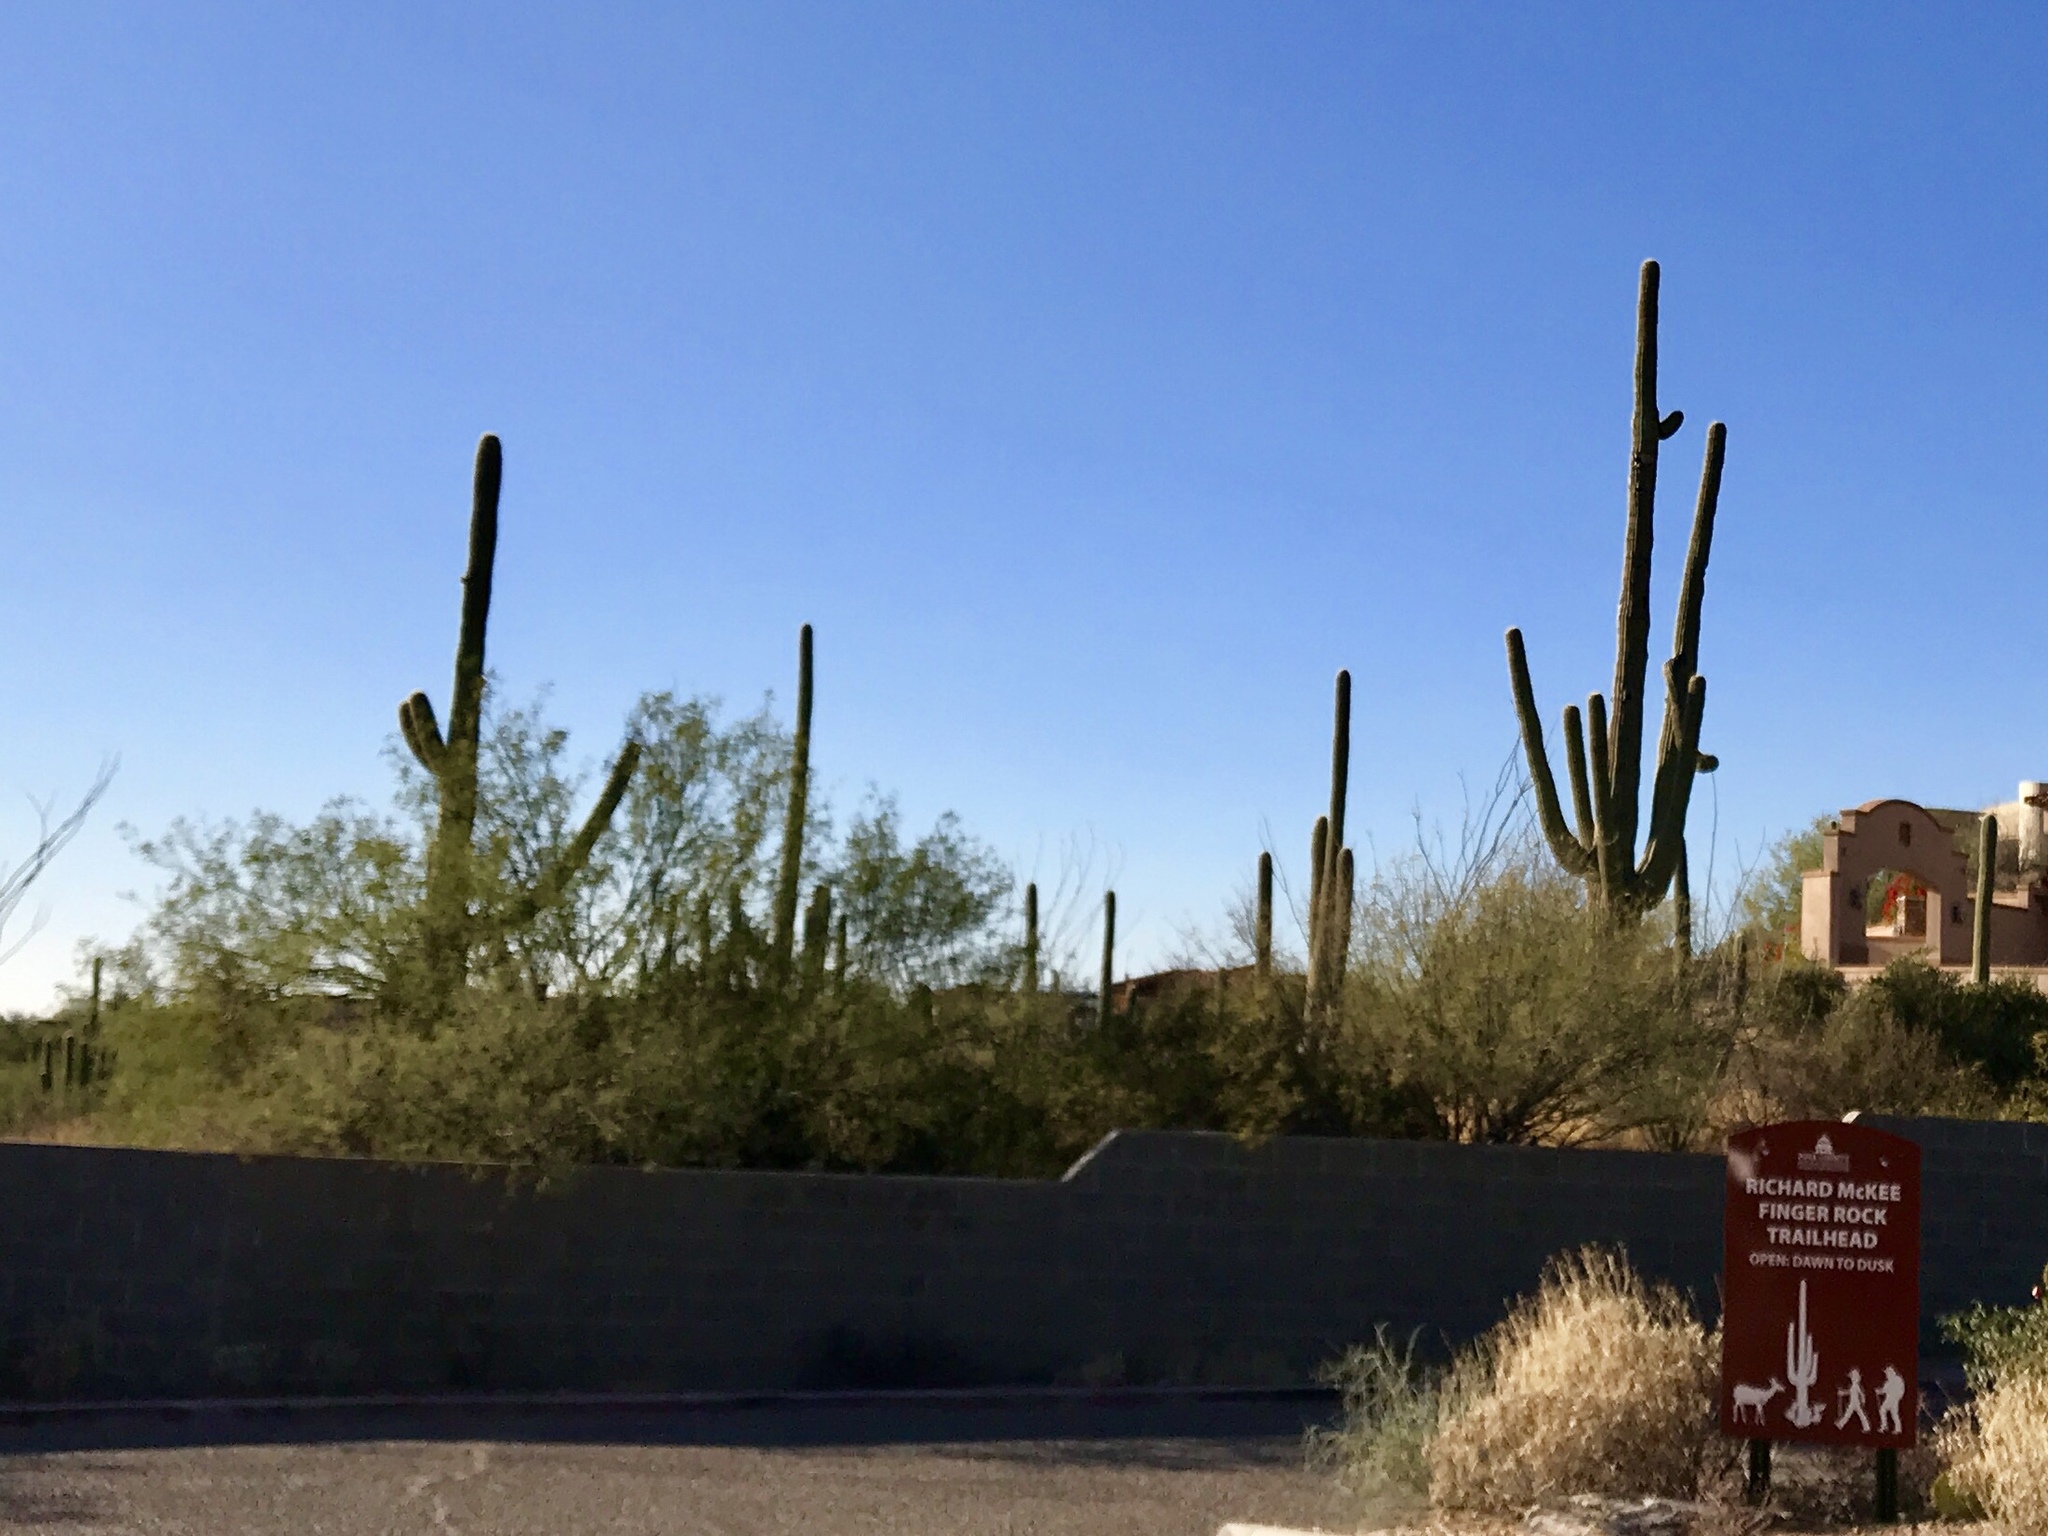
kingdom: Plantae
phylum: Tracheophyta
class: Magnoliopsida
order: Caryophyllales
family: Cactaceae
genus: Carnegiea
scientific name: Carnegiea gigantea
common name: Saguaro
